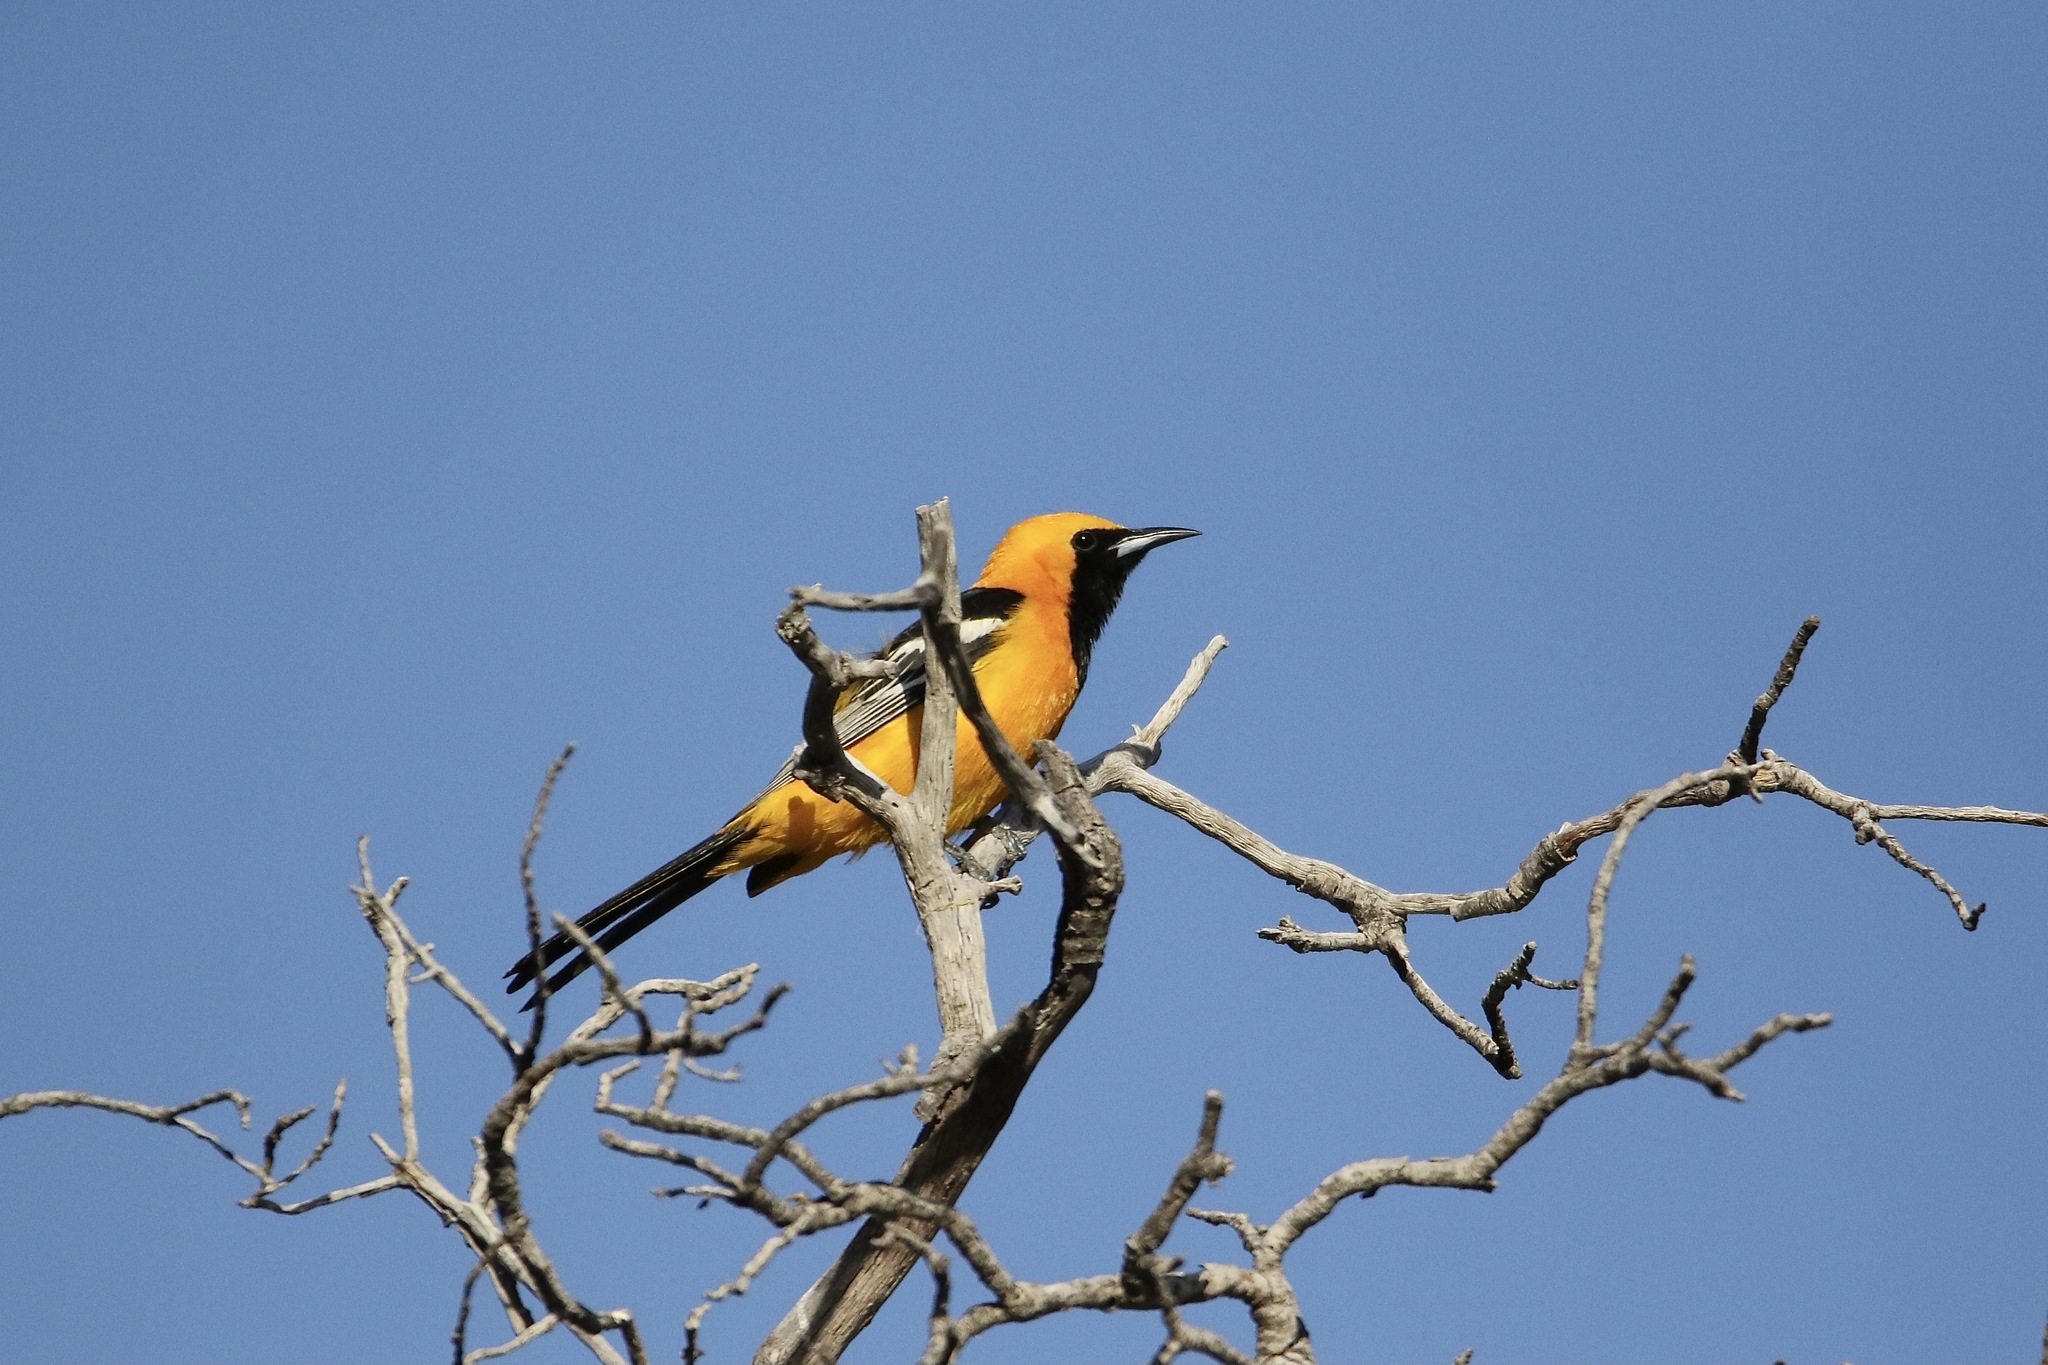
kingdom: Animalia
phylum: Chordata
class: Aves
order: Passeriformes
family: Icteridae
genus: Icterus
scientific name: Icterus cucullatus
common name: Hooded oriole
